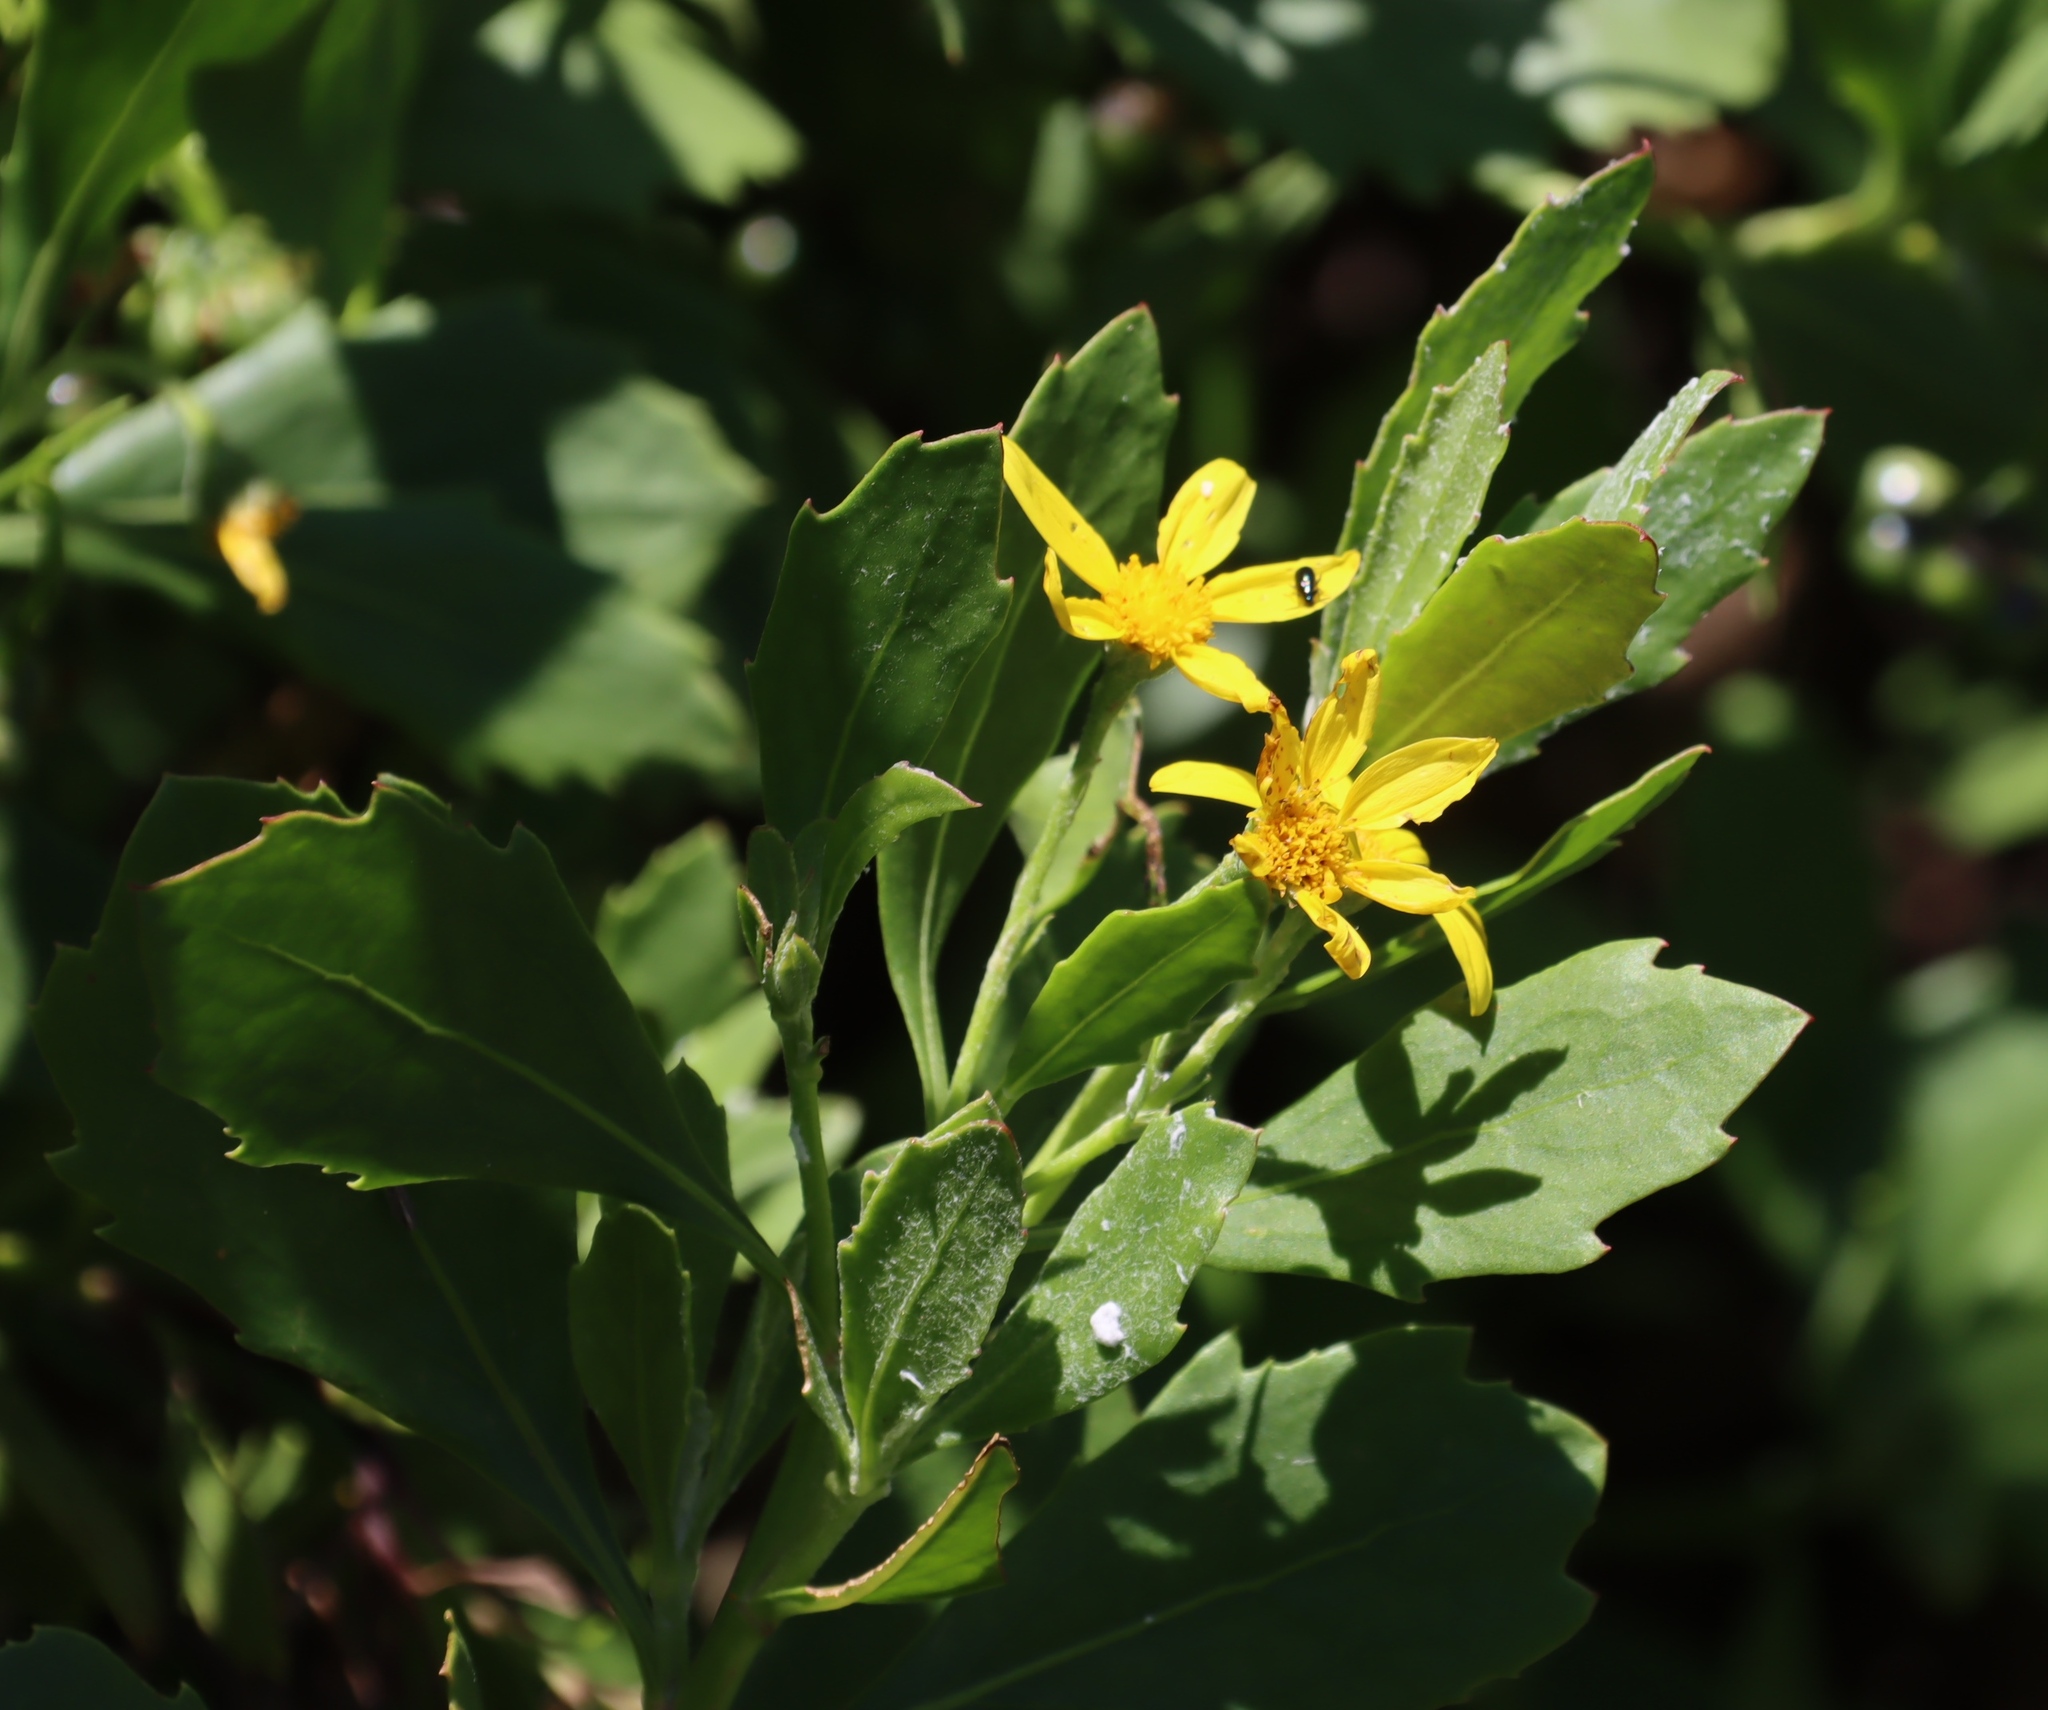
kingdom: Plantae
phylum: Tracheophyta
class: Magnoliopsida
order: Asterales
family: Asteraceae
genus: Osteospermum
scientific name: Osteospermum moniliferum
